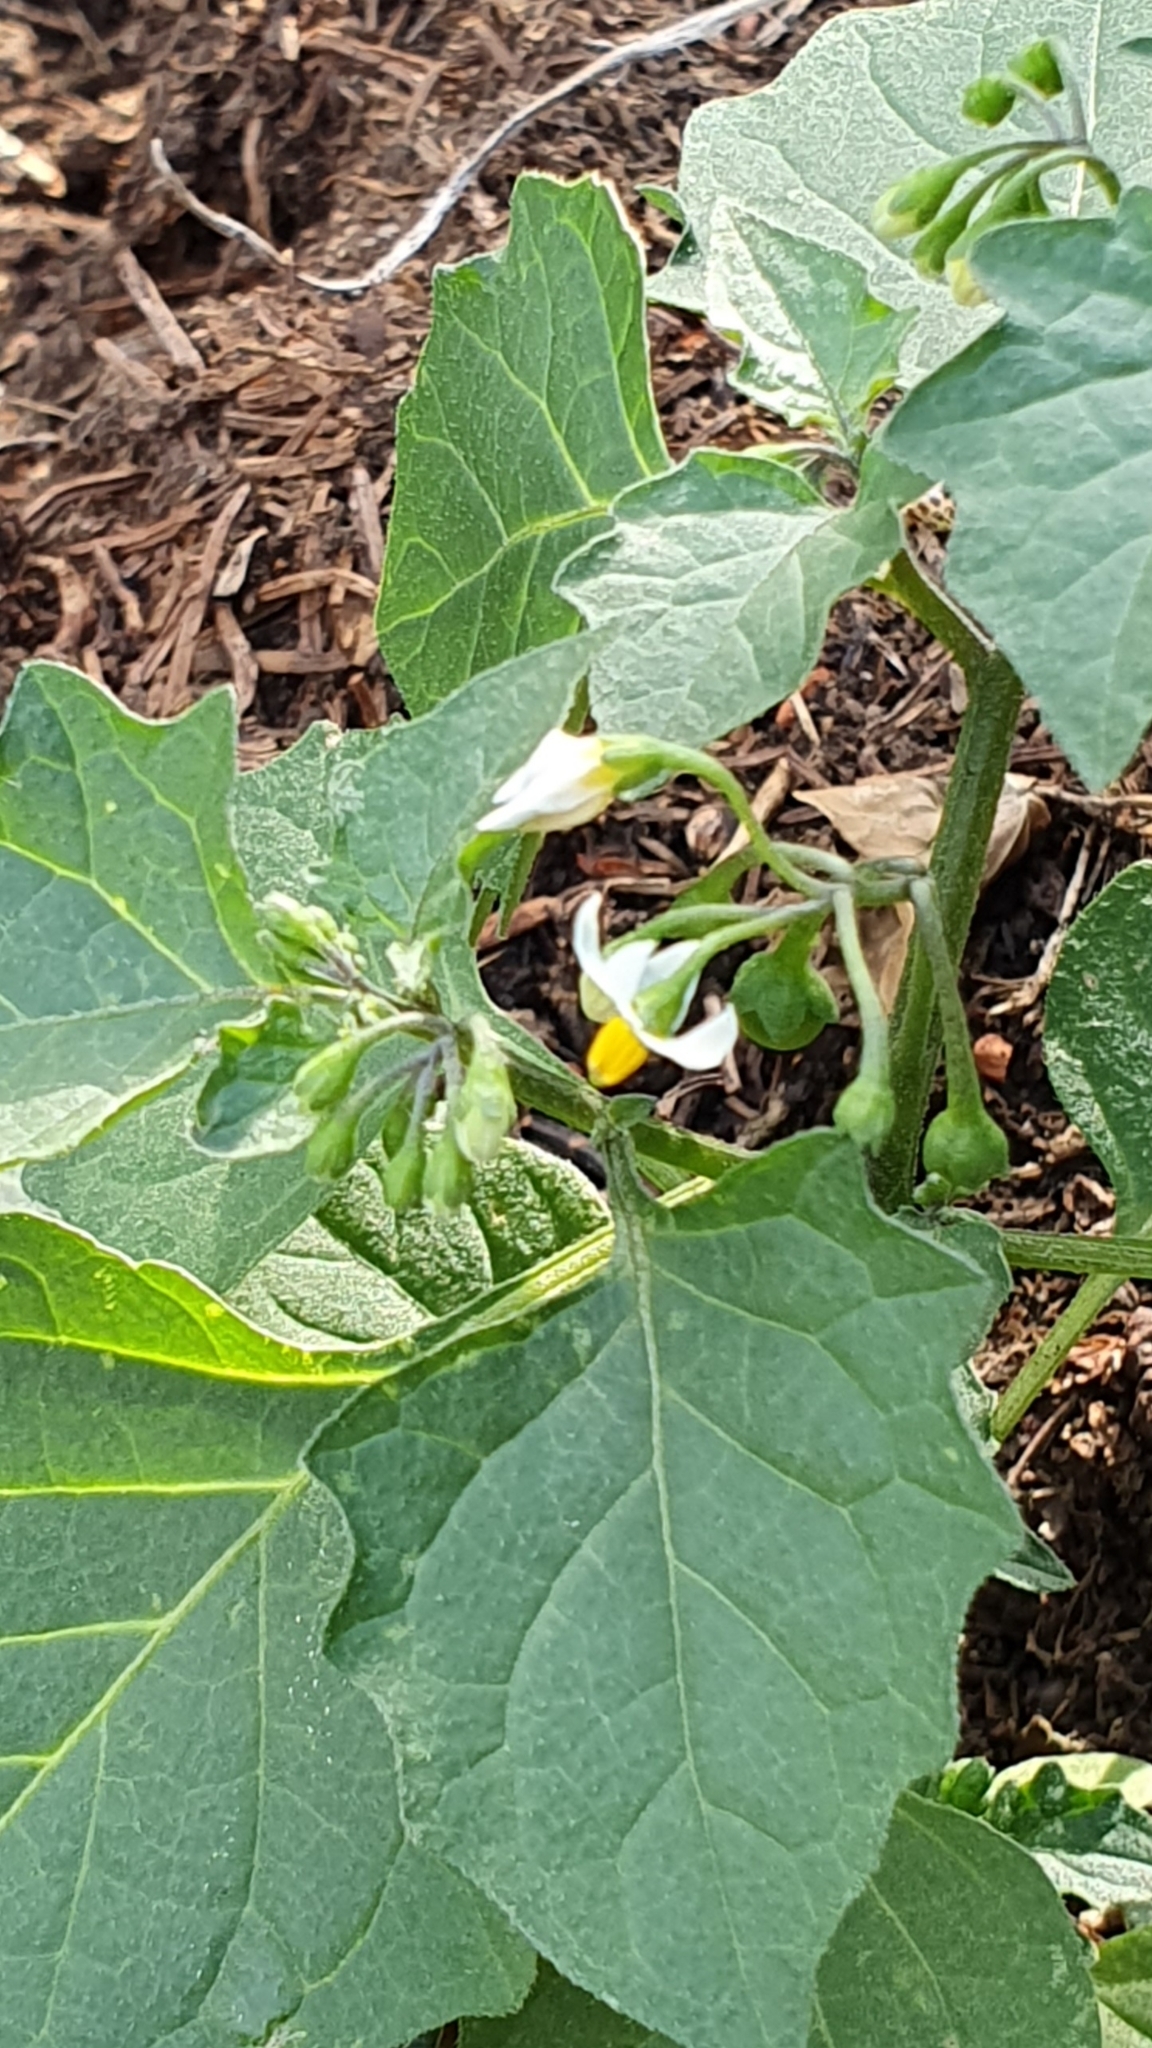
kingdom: Plantae
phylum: Tracheophyta
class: Magnoliopsida
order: Solanales
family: Solanaceae
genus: Solanum
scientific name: Solanum nigrum
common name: Black nightshade
